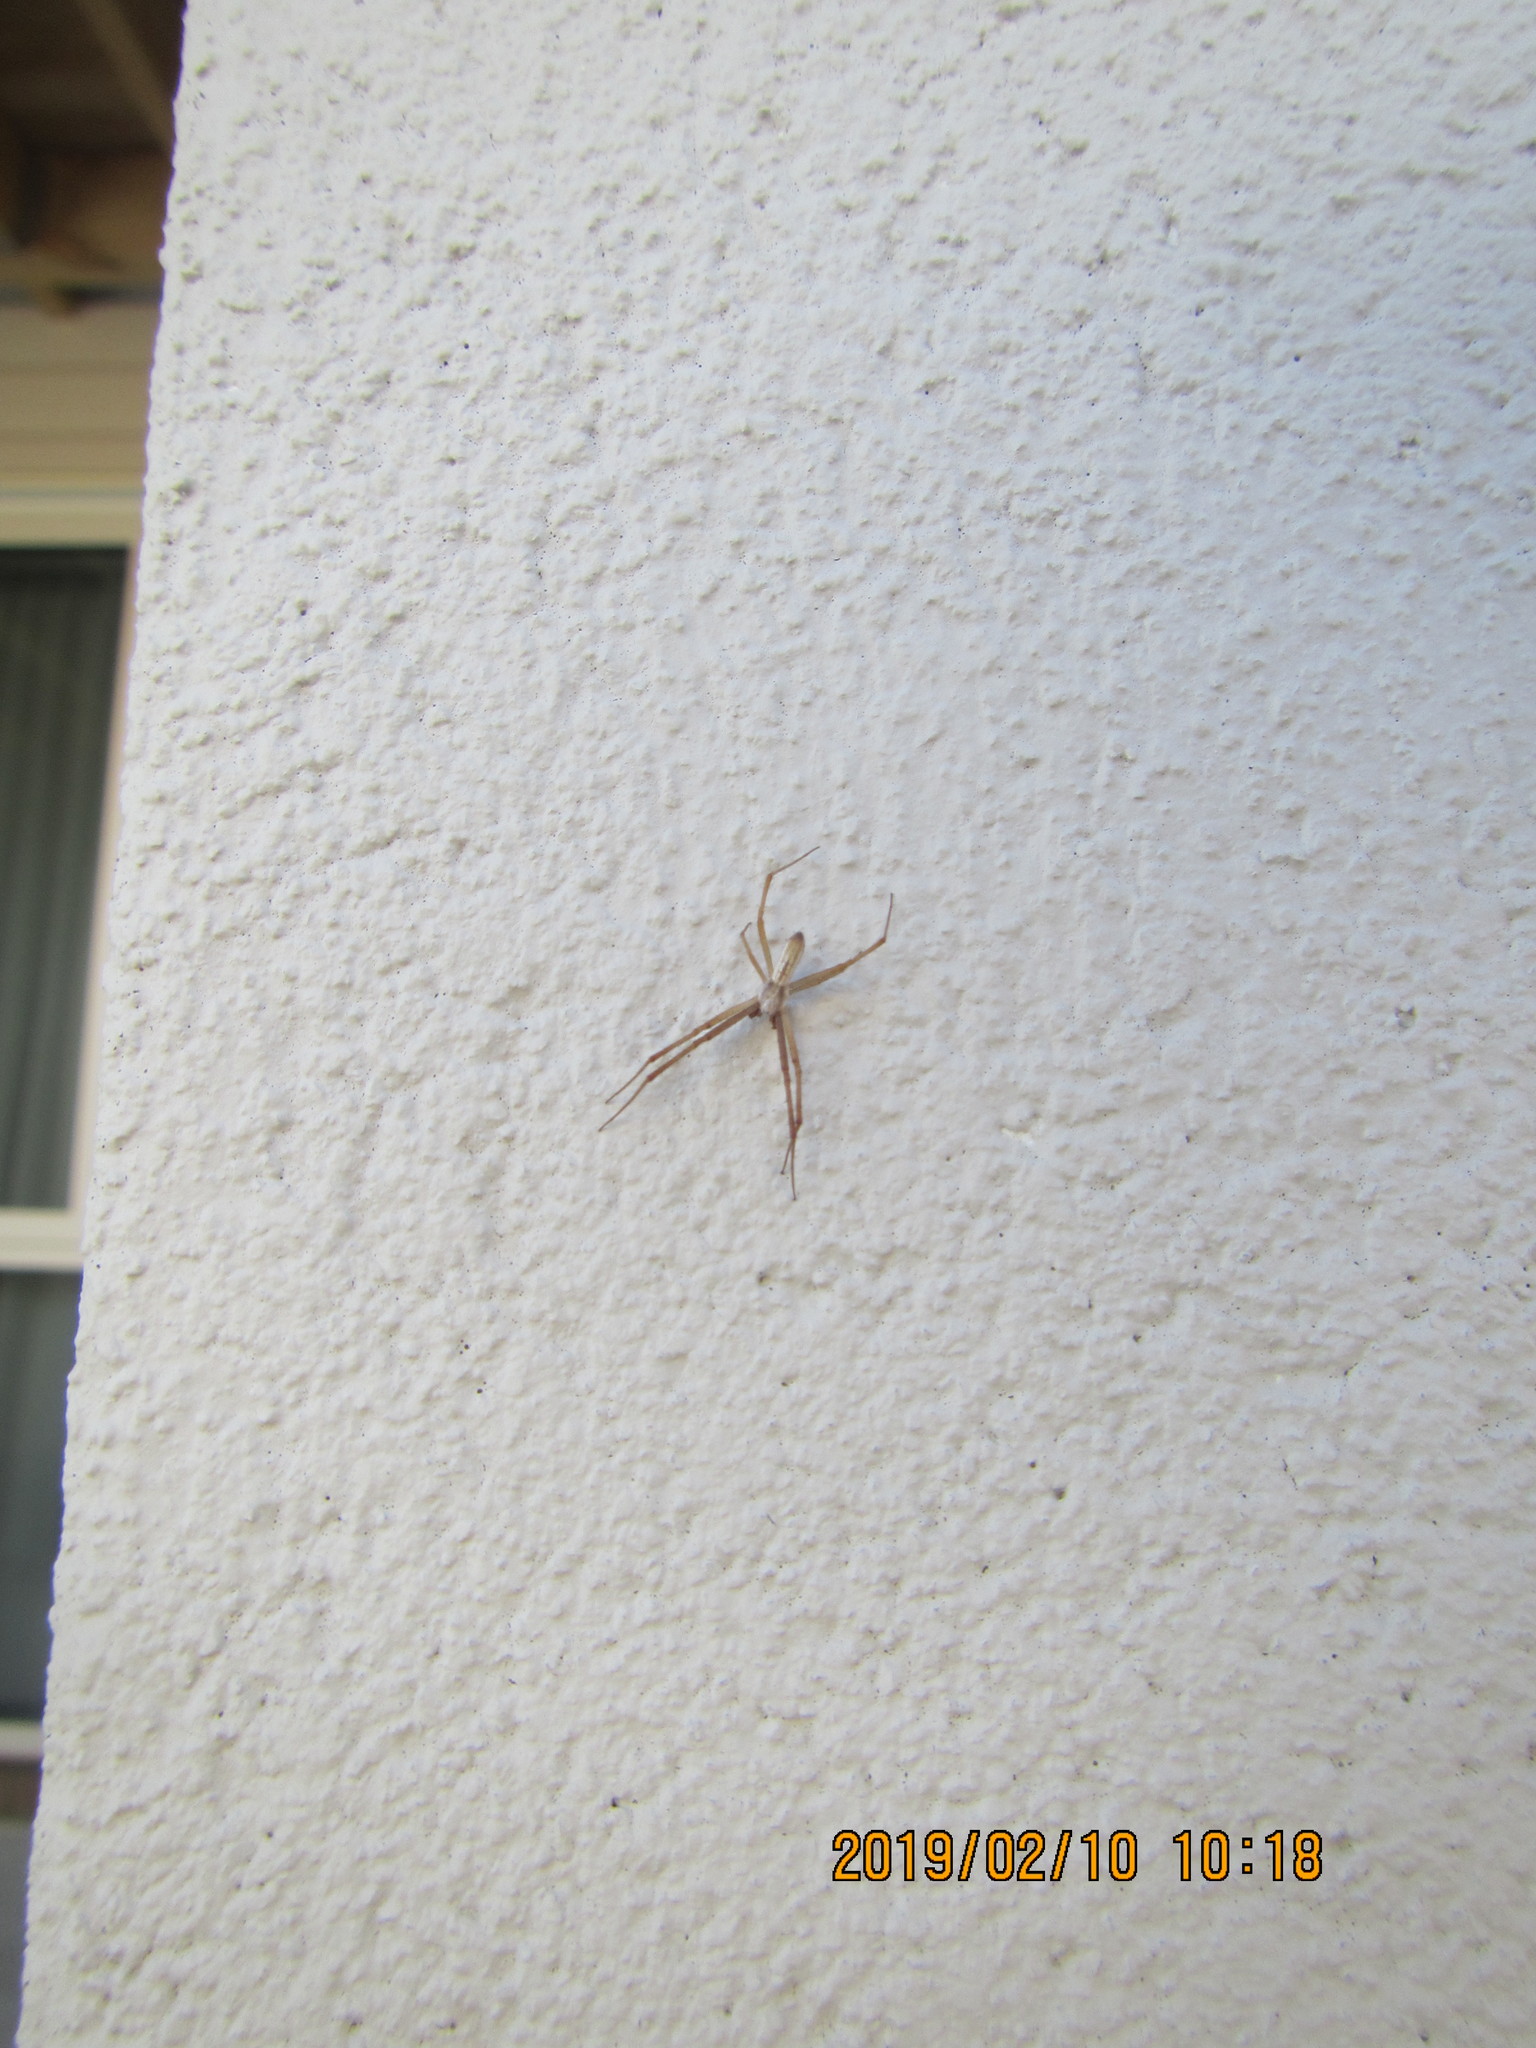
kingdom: Animalia
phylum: Arthropoda
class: Arachnida
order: Araneae
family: Araneidae
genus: Argiope
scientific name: Argiope protensa
